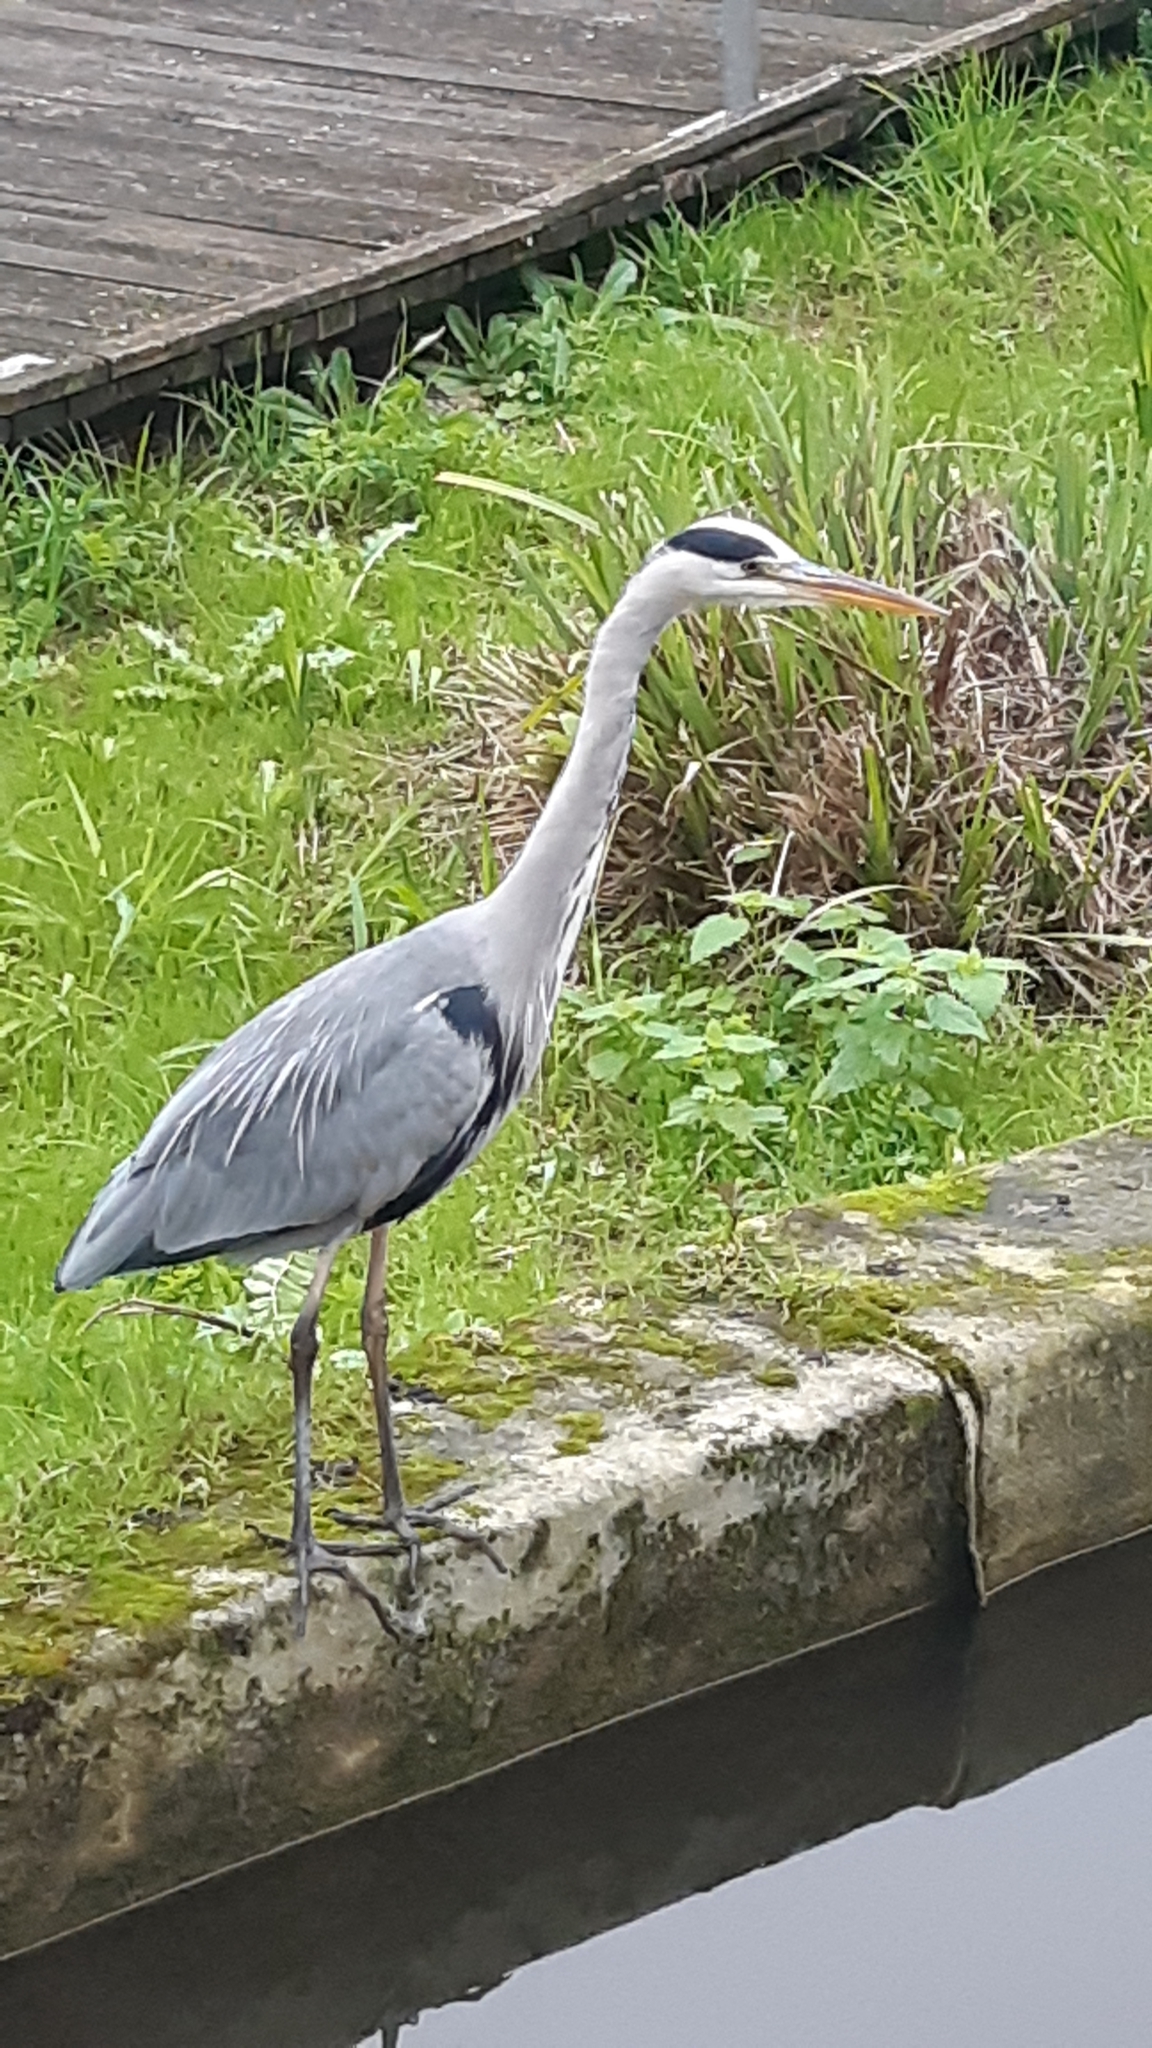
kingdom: Animalia
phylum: Chordata
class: Aves
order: Pelecaniformes
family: Ardeidae
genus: Ardea
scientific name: Ardea cinerea
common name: Grey heron
